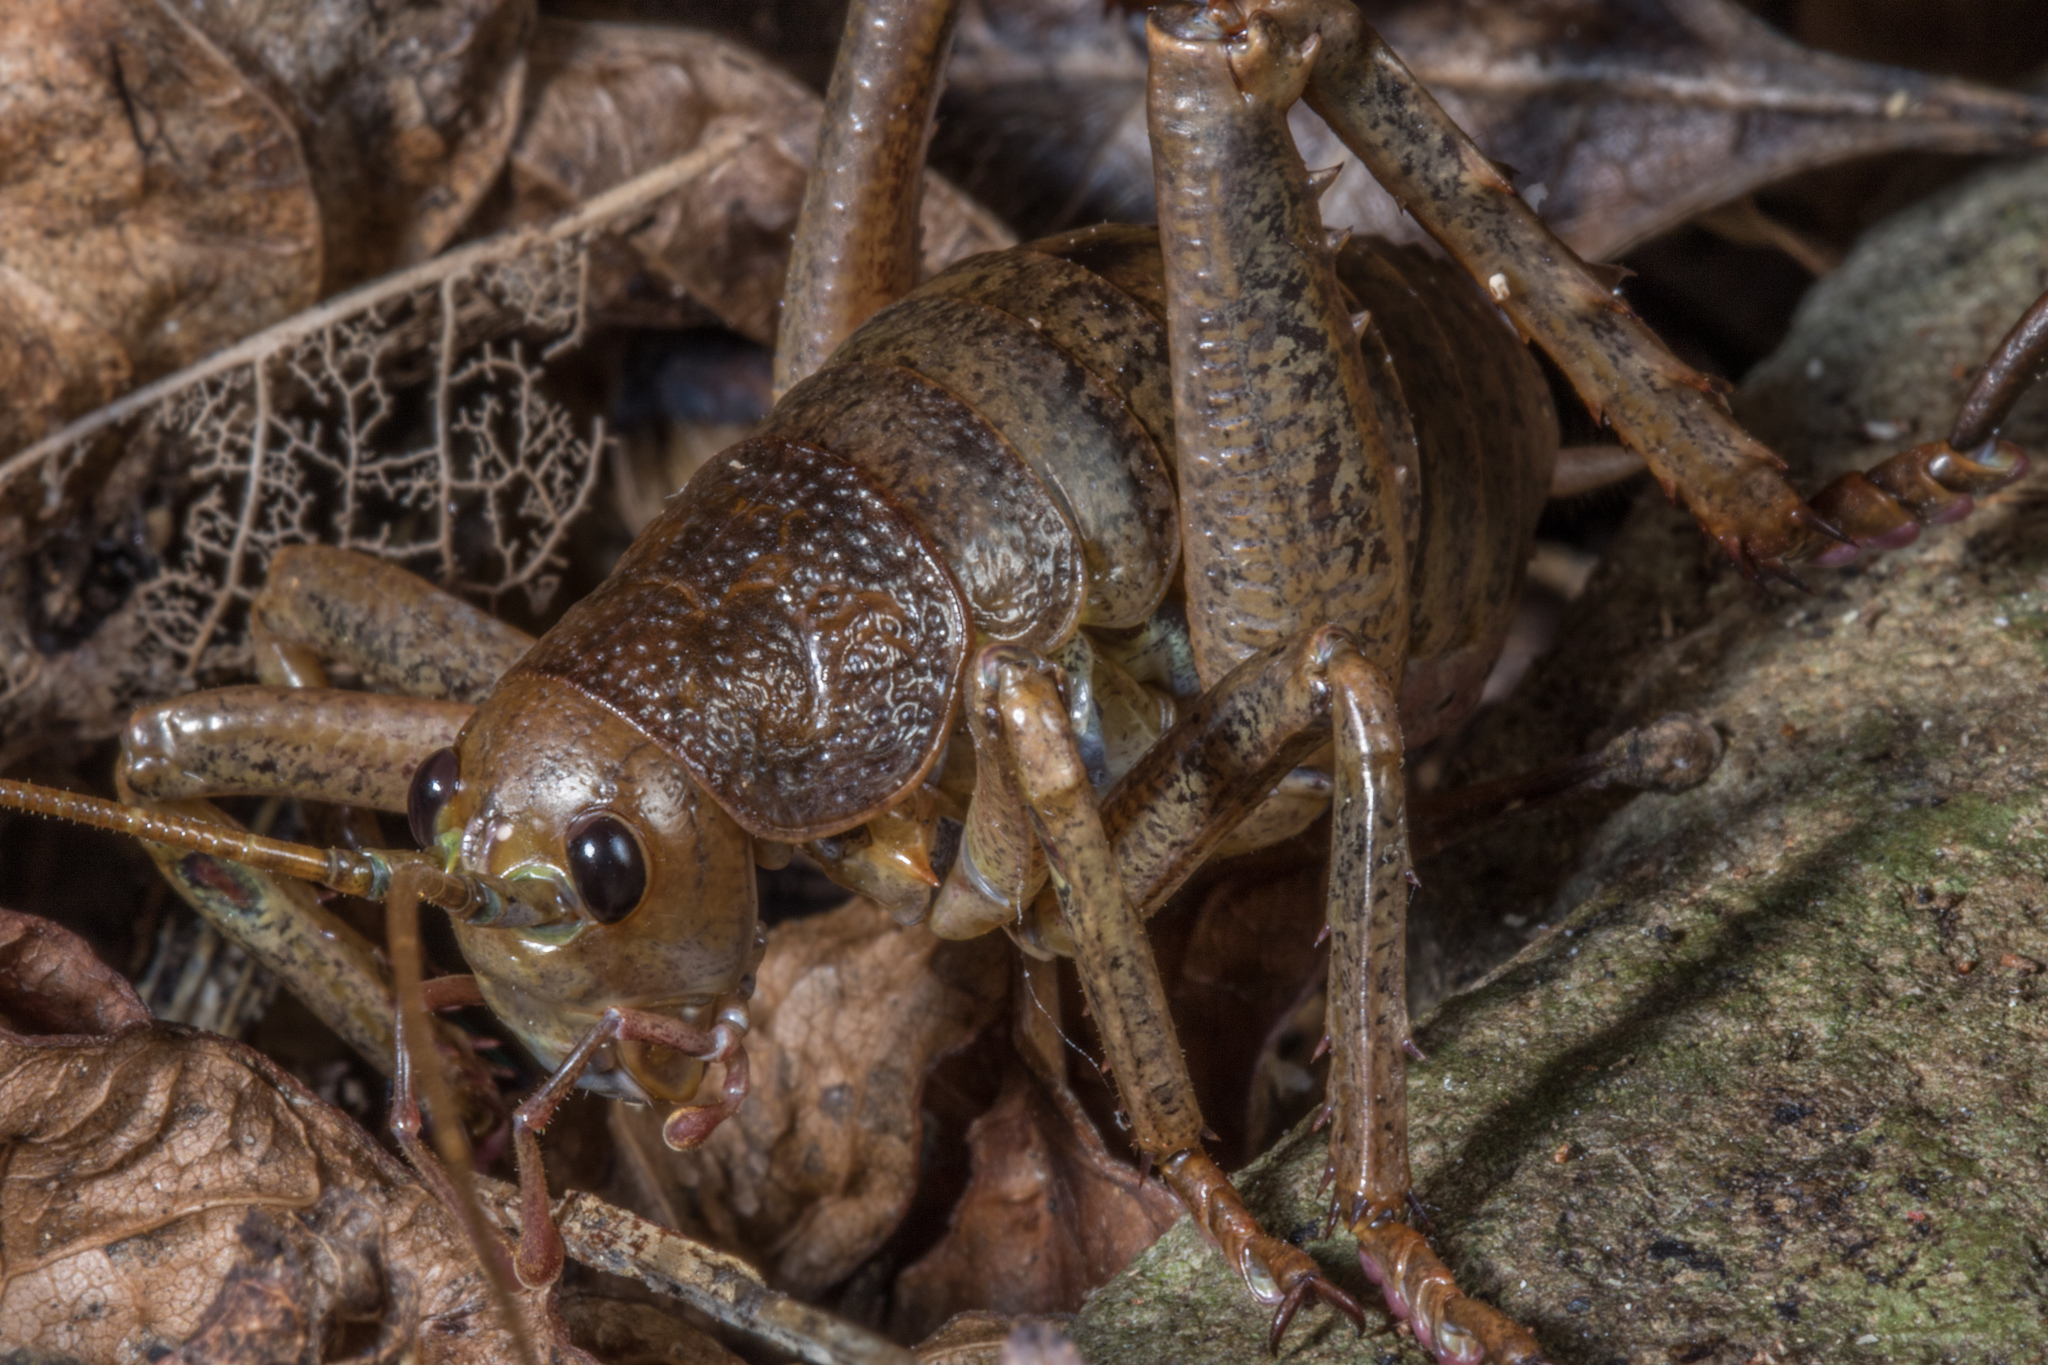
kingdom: Animalia
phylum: Arthropoda
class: Insecta
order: Orthoptera
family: Anostostomatidae
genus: Deinacrida
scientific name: Deinacrida heteracantha
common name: Wetapunga
